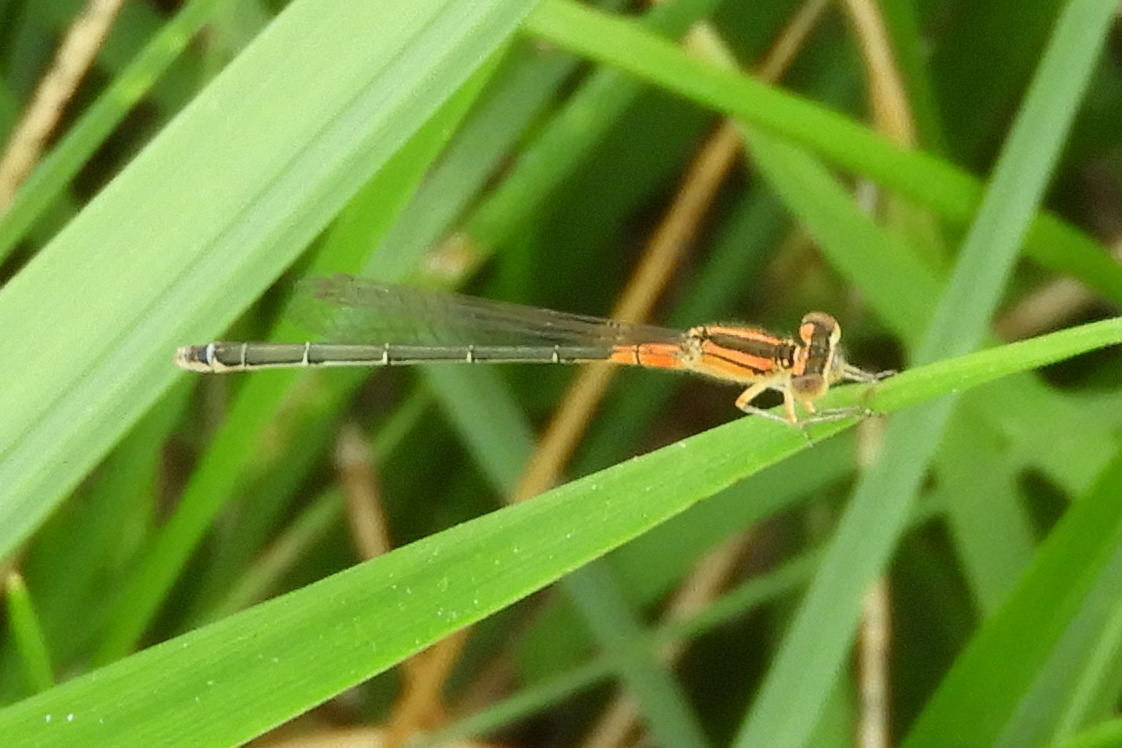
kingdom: Animalia
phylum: Arthropoda
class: Insecta
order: Odonata
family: Coenagrionidae
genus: Ischnura
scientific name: Ischnura verticalis
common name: Eastern forktail
